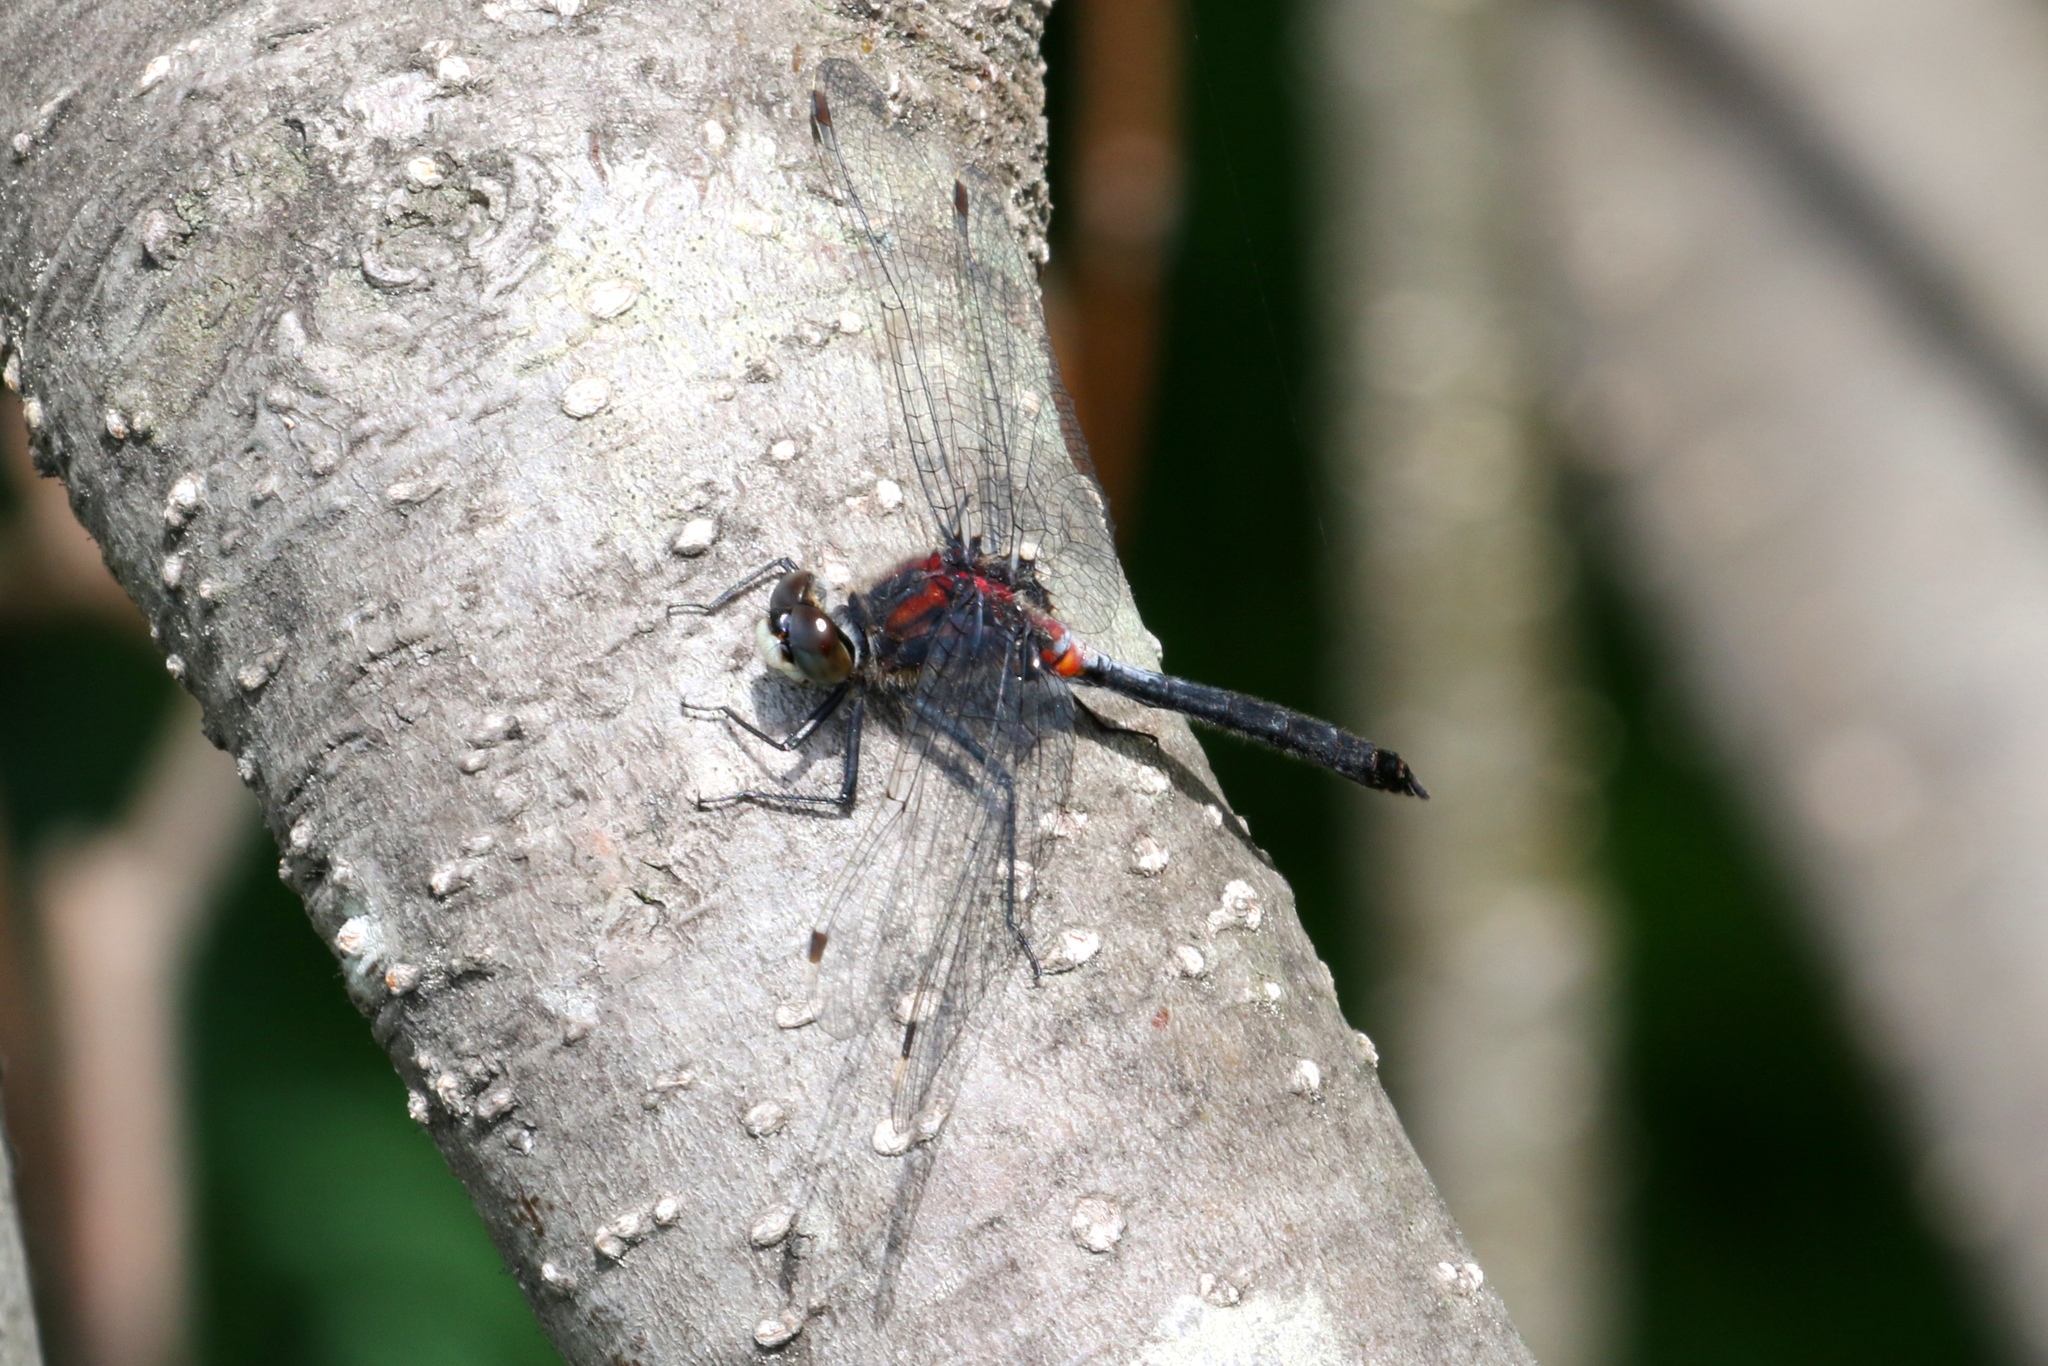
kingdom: Animalia
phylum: Arthropoda
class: Insecta
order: Odonata
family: Libellulidae
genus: Leucorrhinia
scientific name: Leucorrhinia proxima
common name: Belted whiteface
